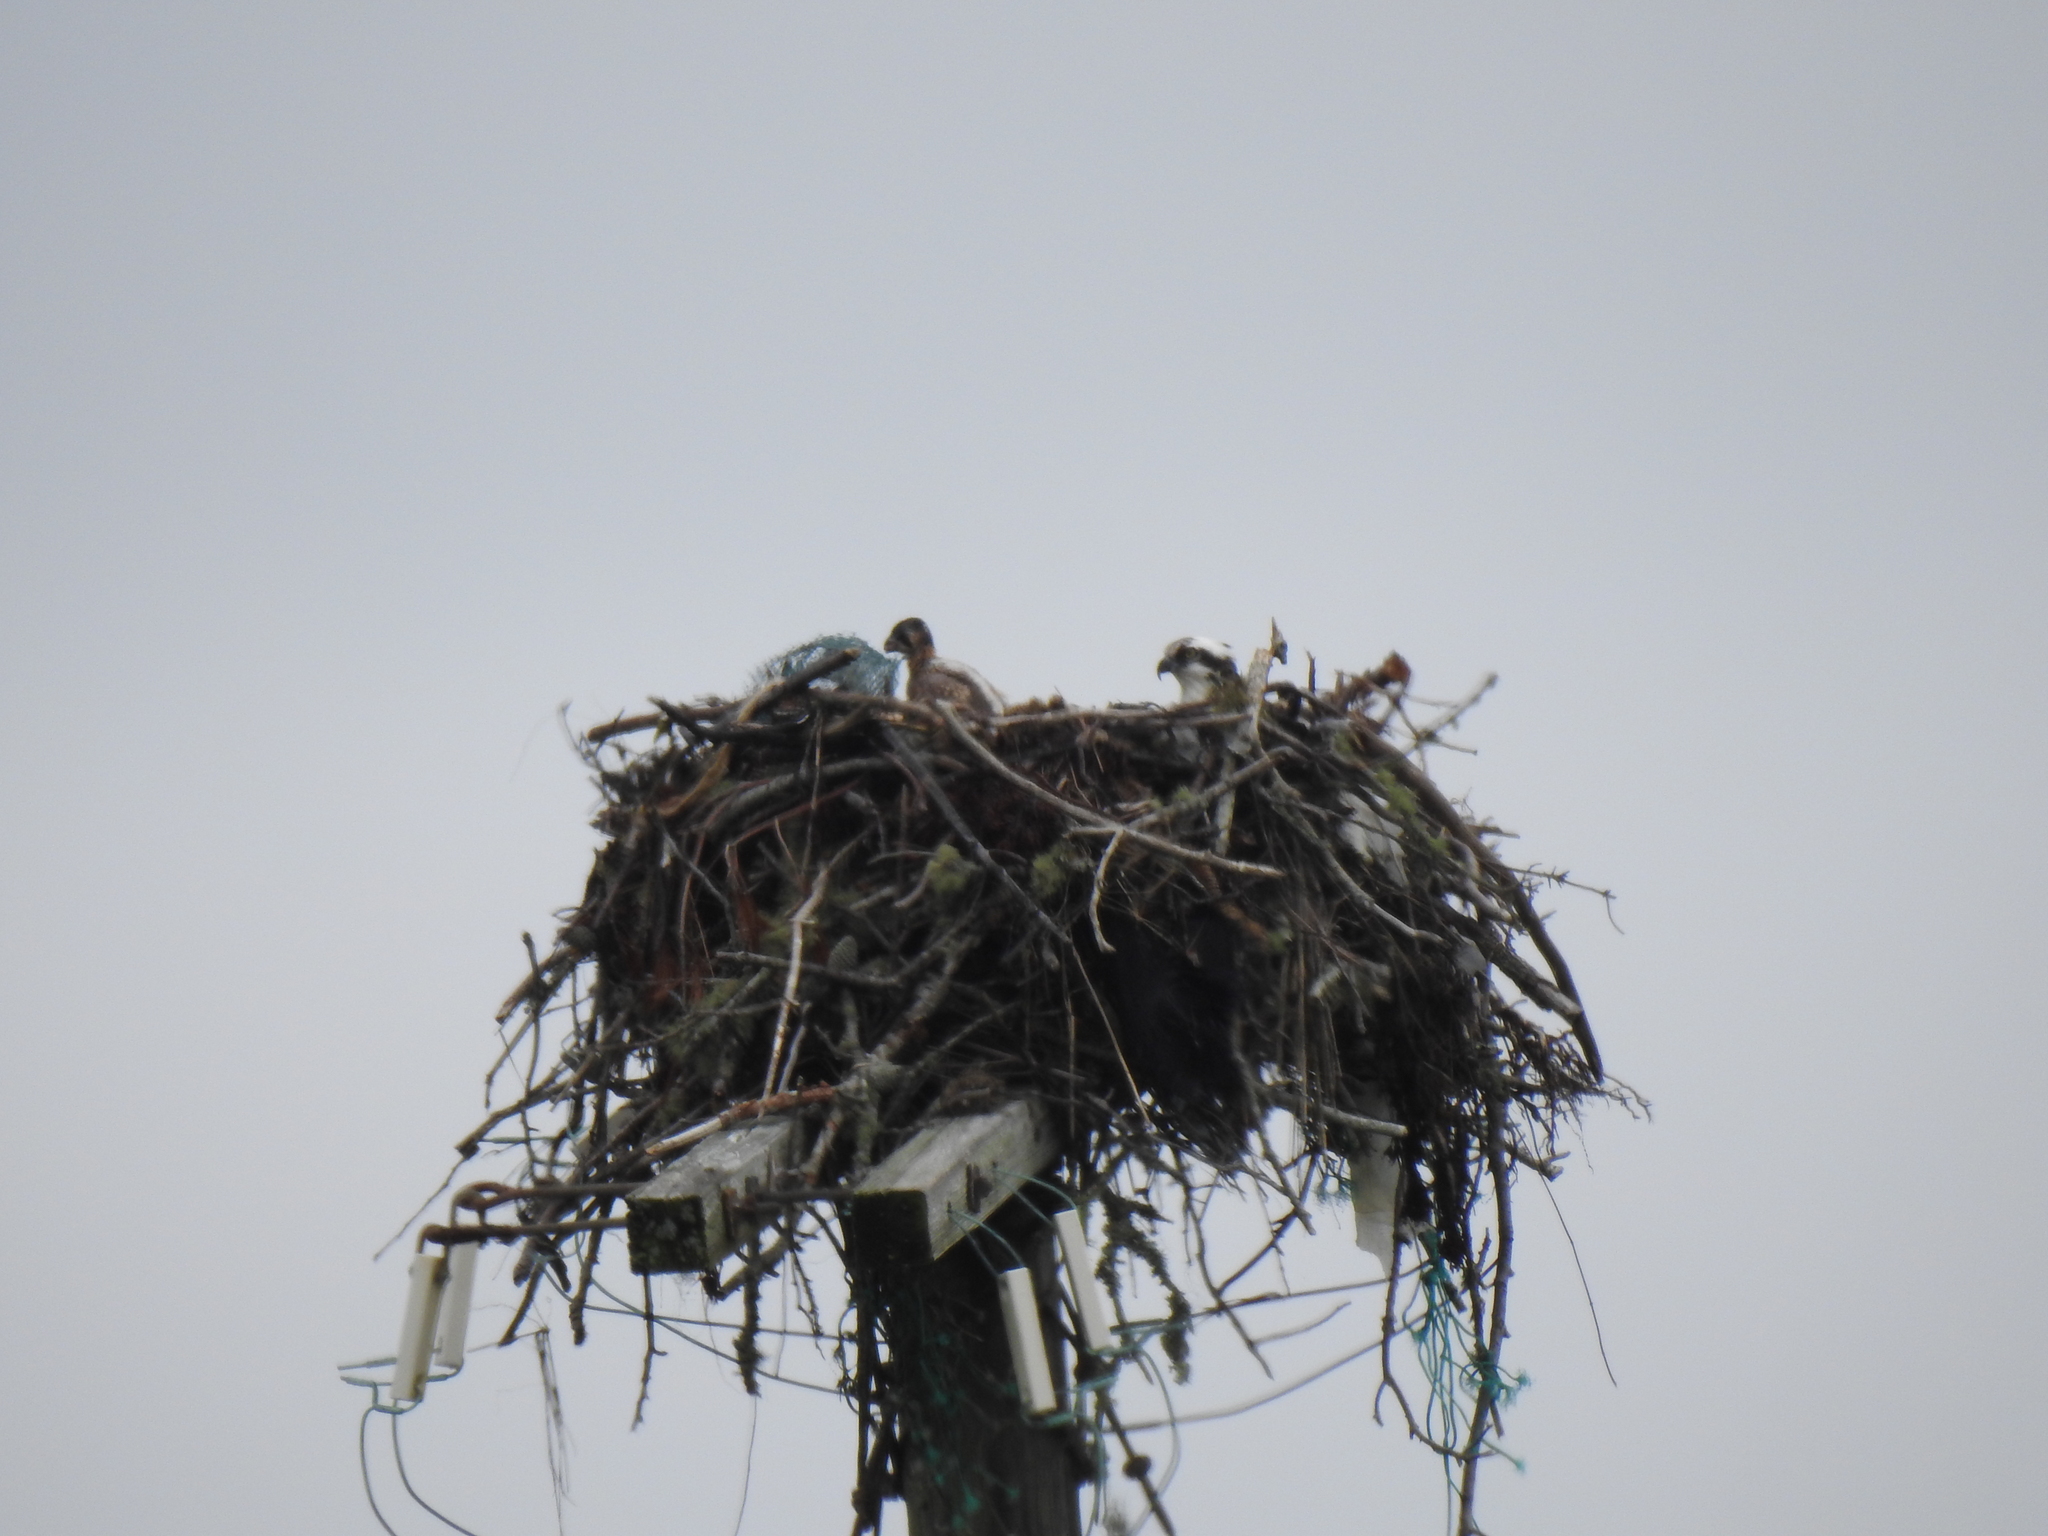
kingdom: Animalia
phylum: Chordata
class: Aves
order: Accipitriformes
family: Pandionidae
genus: Pandion
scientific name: Pandion haliaetus
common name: Osprey
